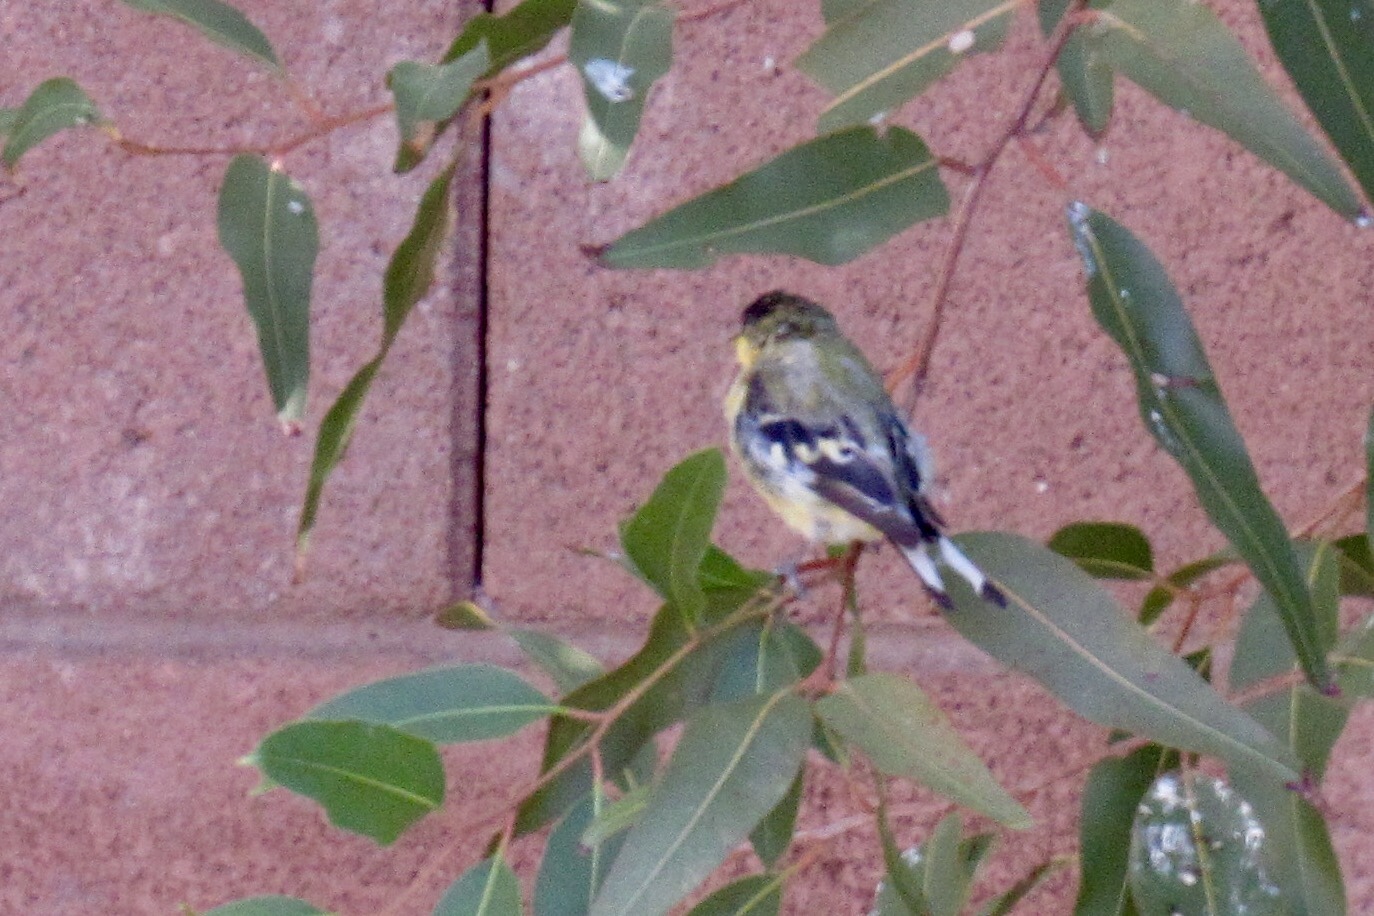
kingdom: Animalia
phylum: Chordata
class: Aves
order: Passeriformes
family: Fringillidae
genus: Spinus
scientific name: Spinus psaltria
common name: Lesser goldfinch
